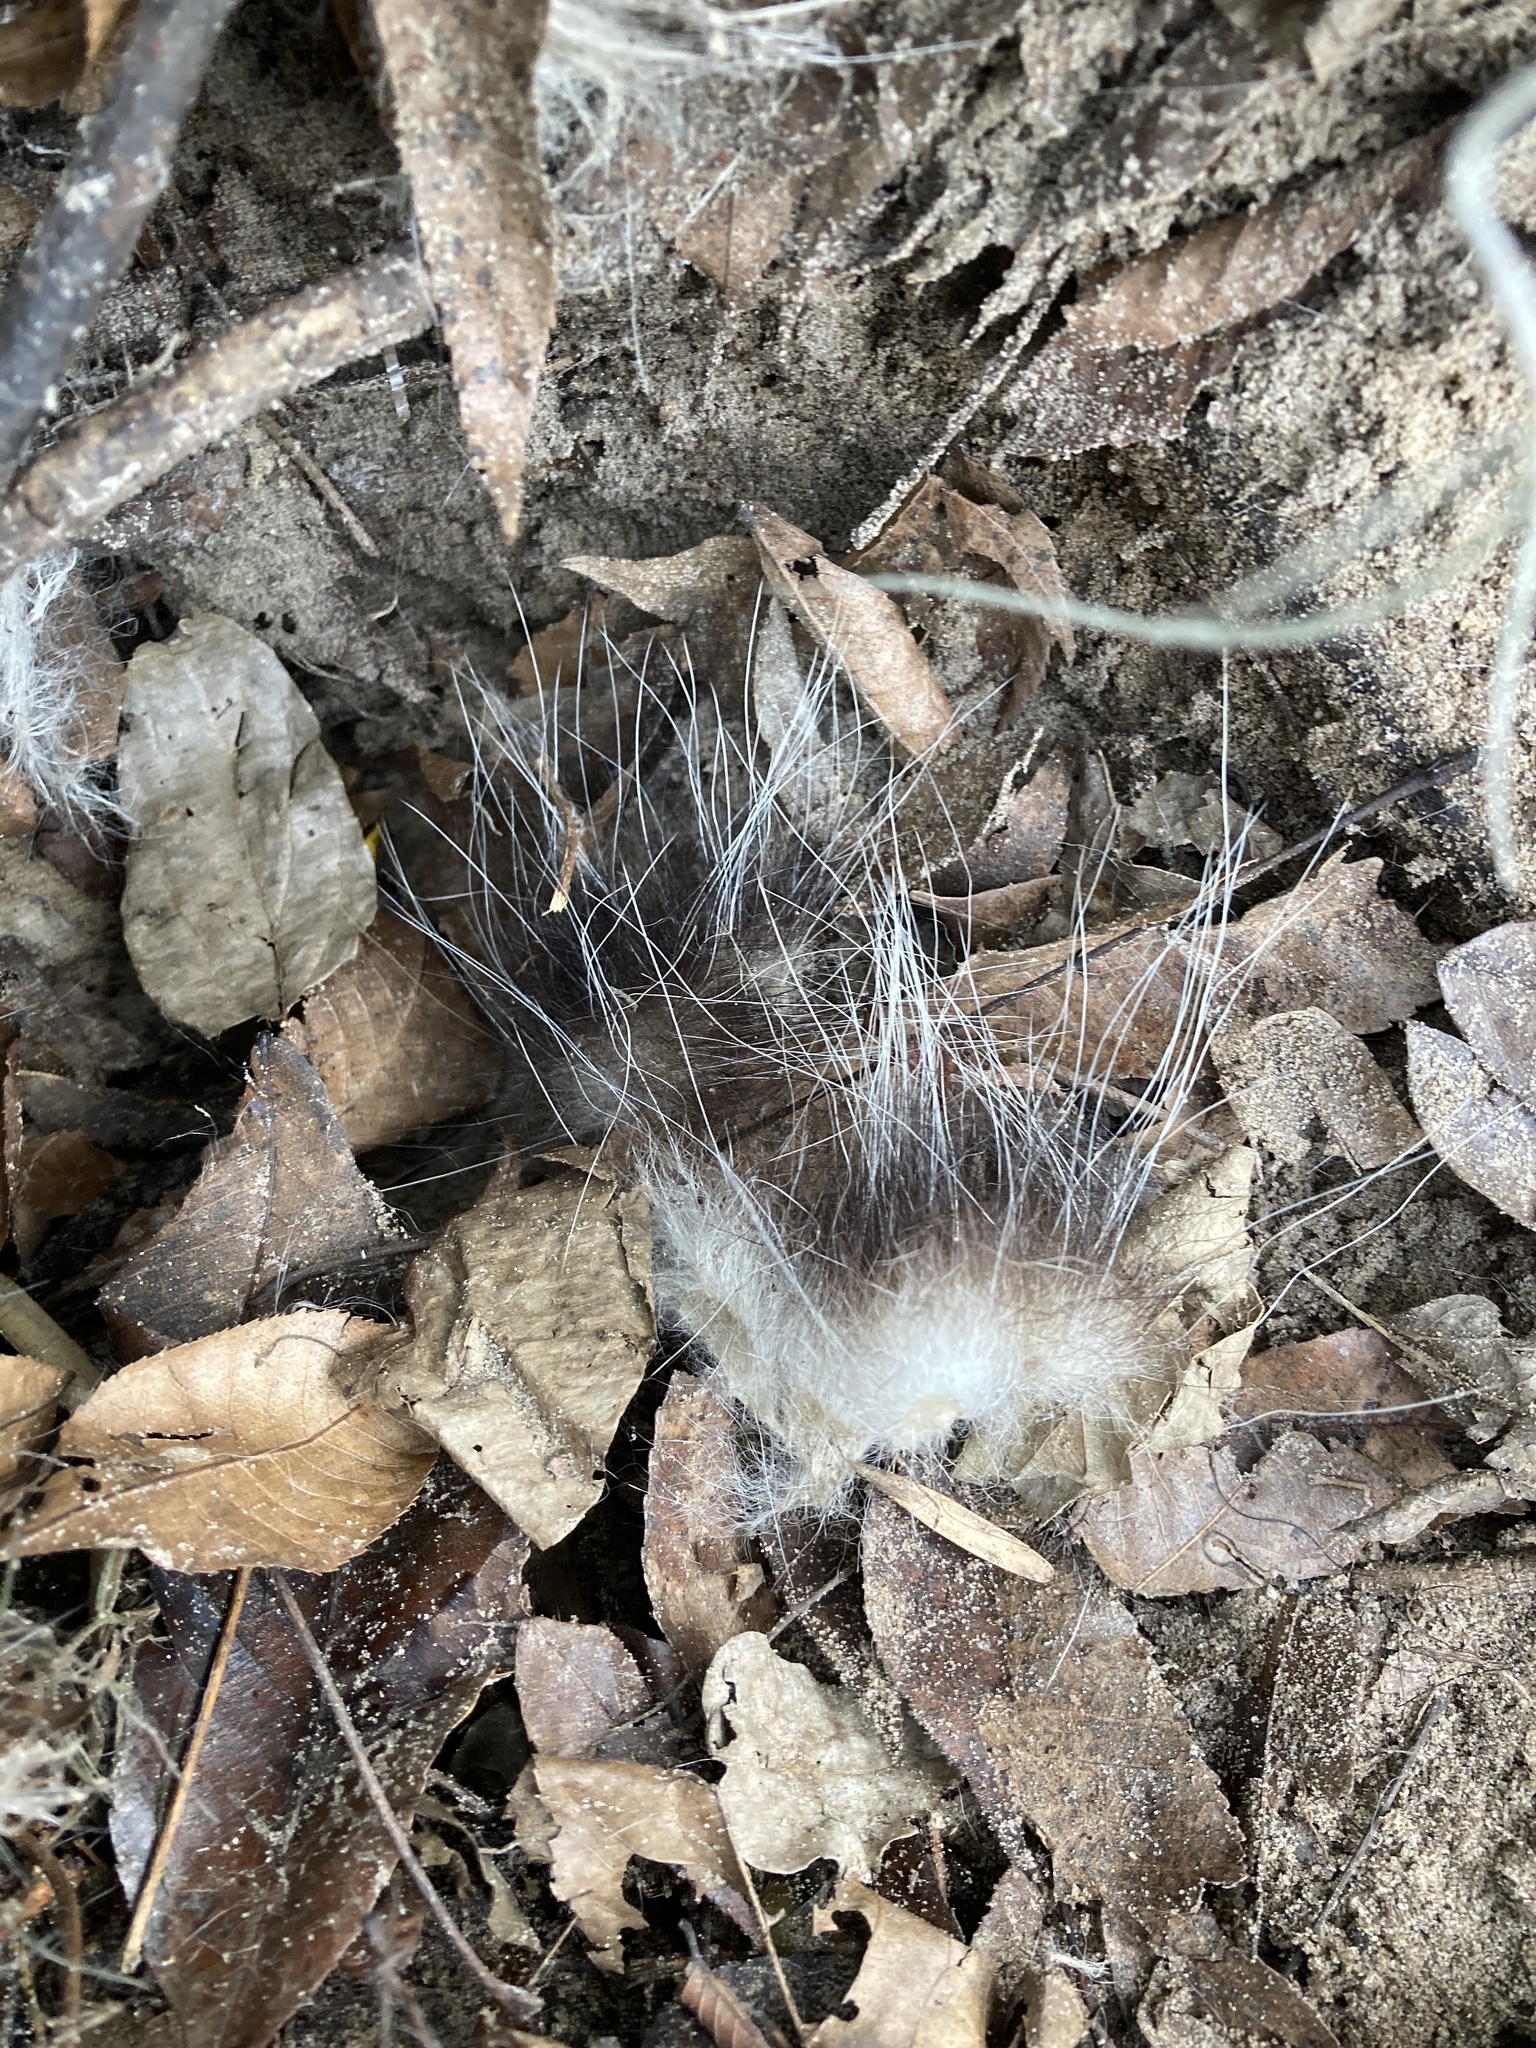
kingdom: Animalia
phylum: Chordata
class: Mammalia
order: Didelphimorphia
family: Didelphidae
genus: Didelphis
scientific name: Didelphis virginiana
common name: Virginia opossum
